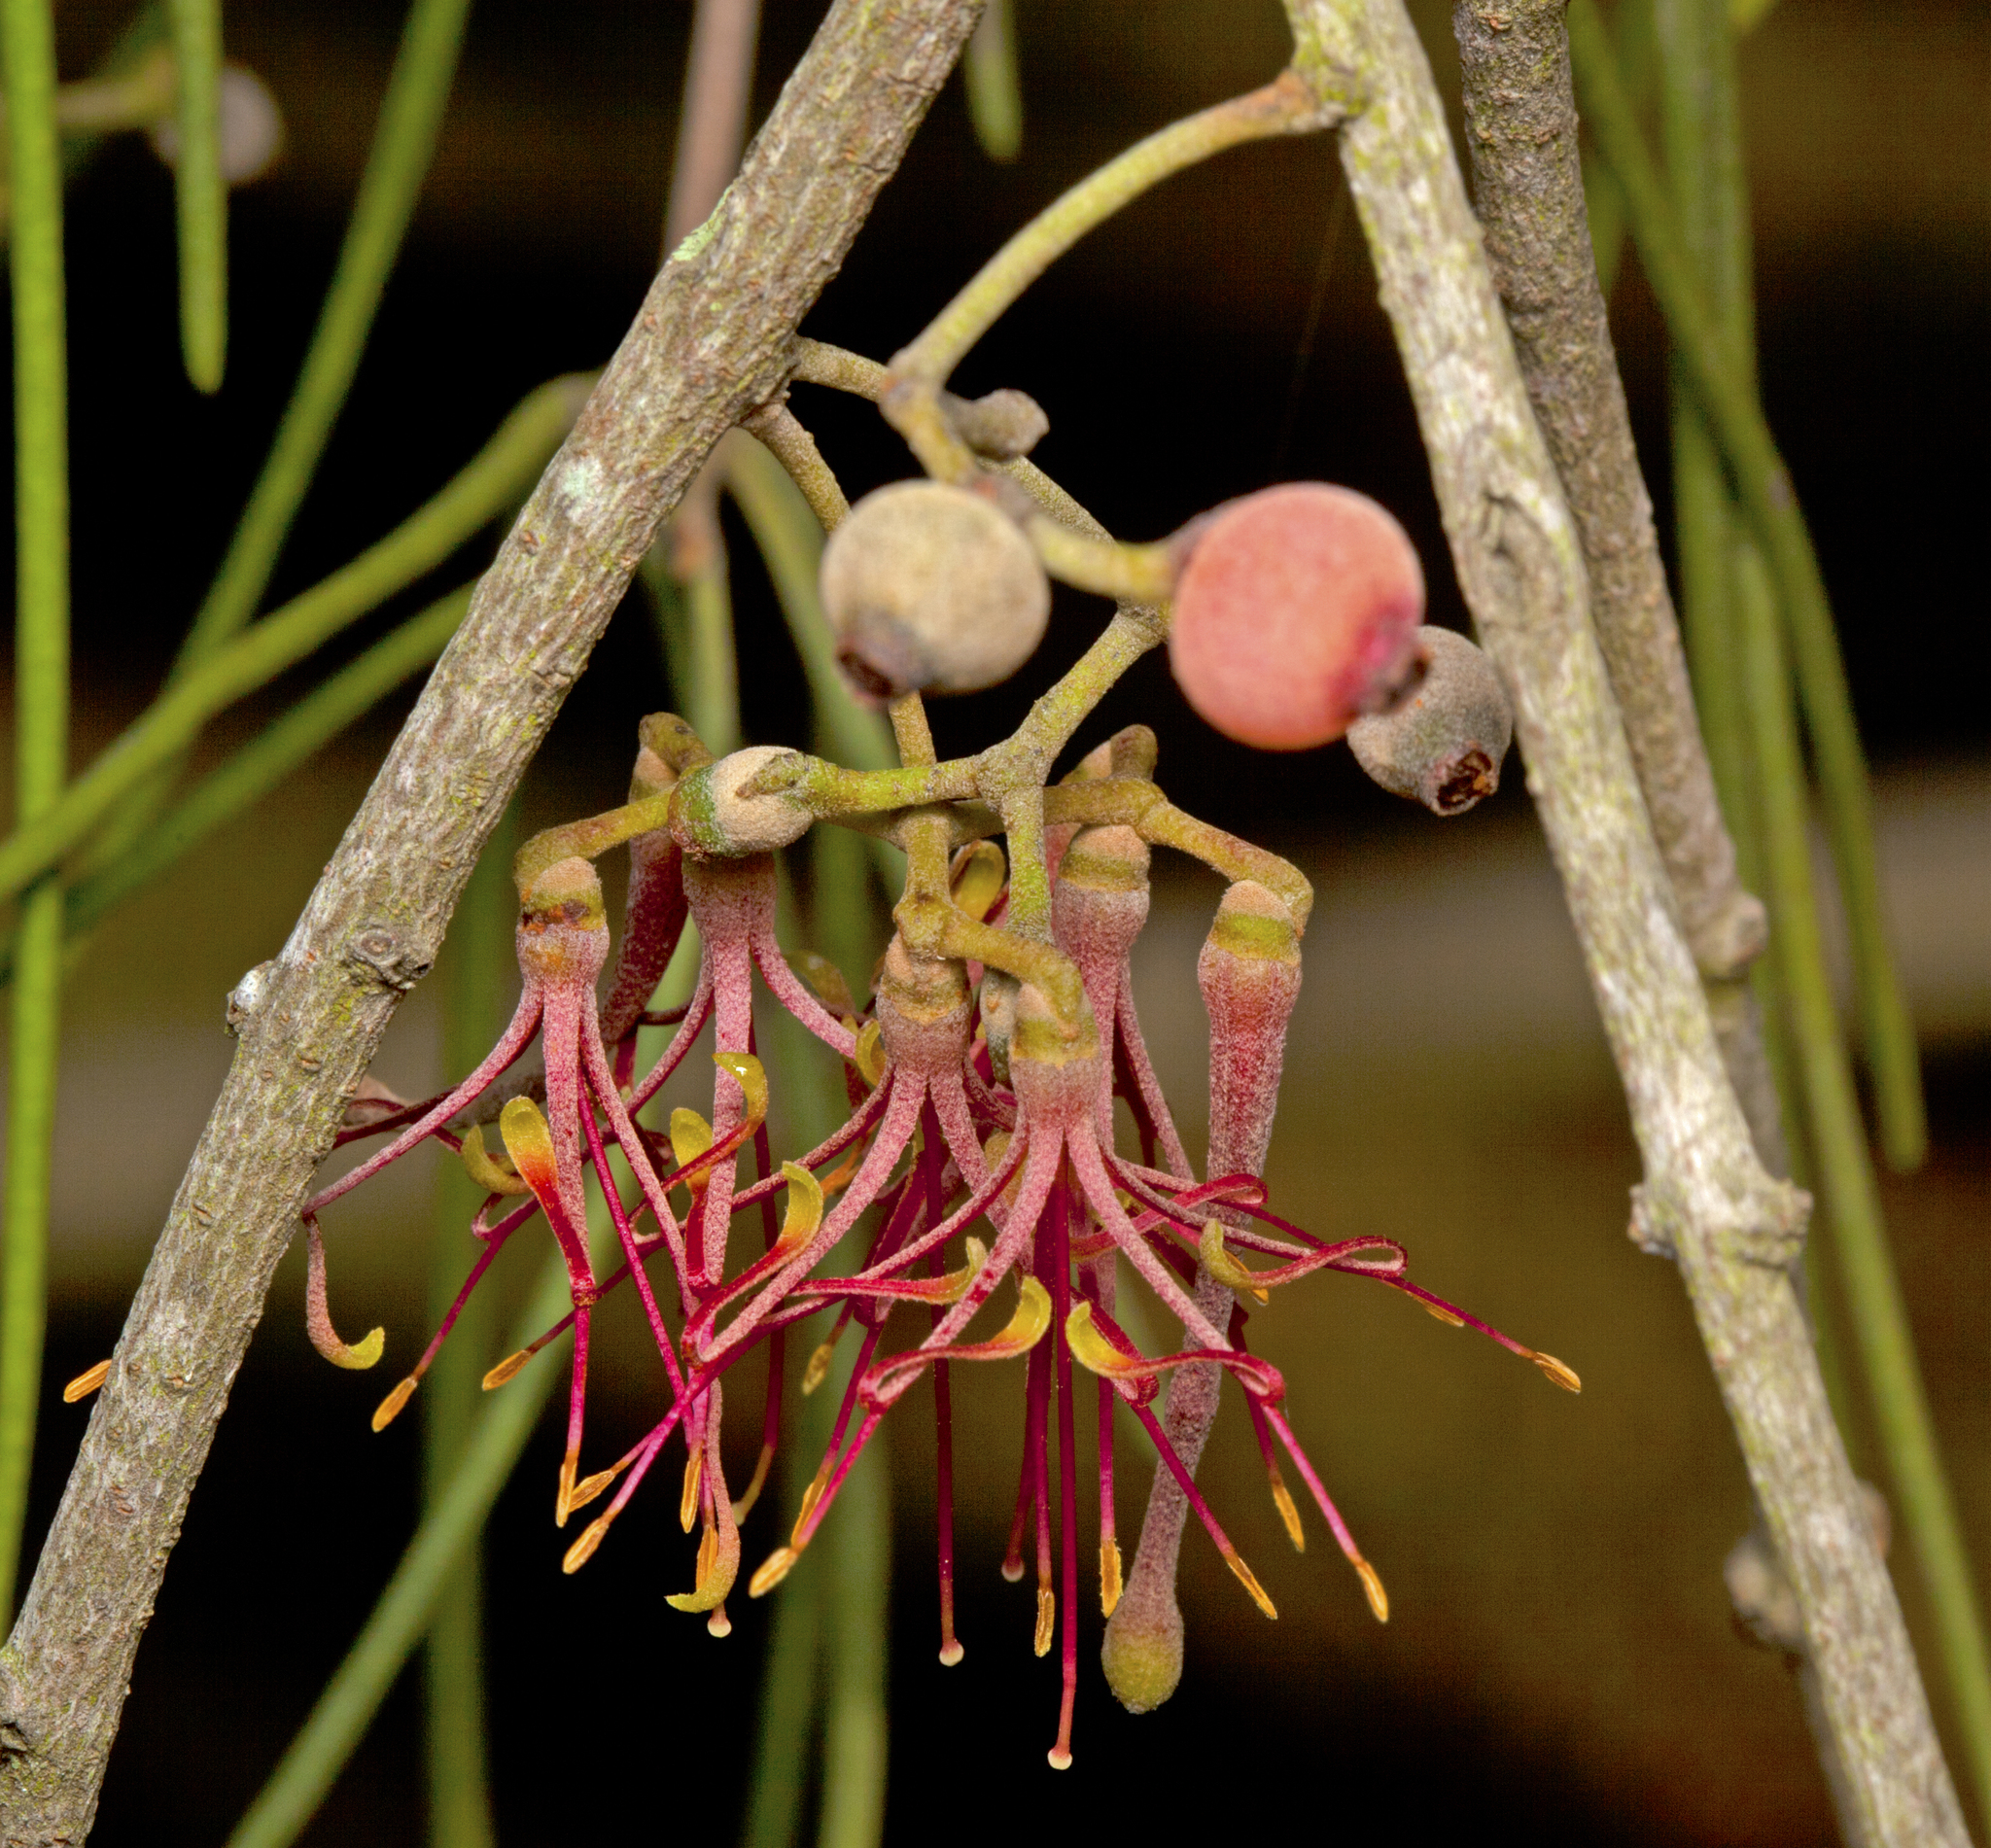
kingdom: Plantae
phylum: Tracheophyta
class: Magnoliopsida
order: Santalales
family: Loranthaceae
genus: Amyema
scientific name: Amyema cambagei
